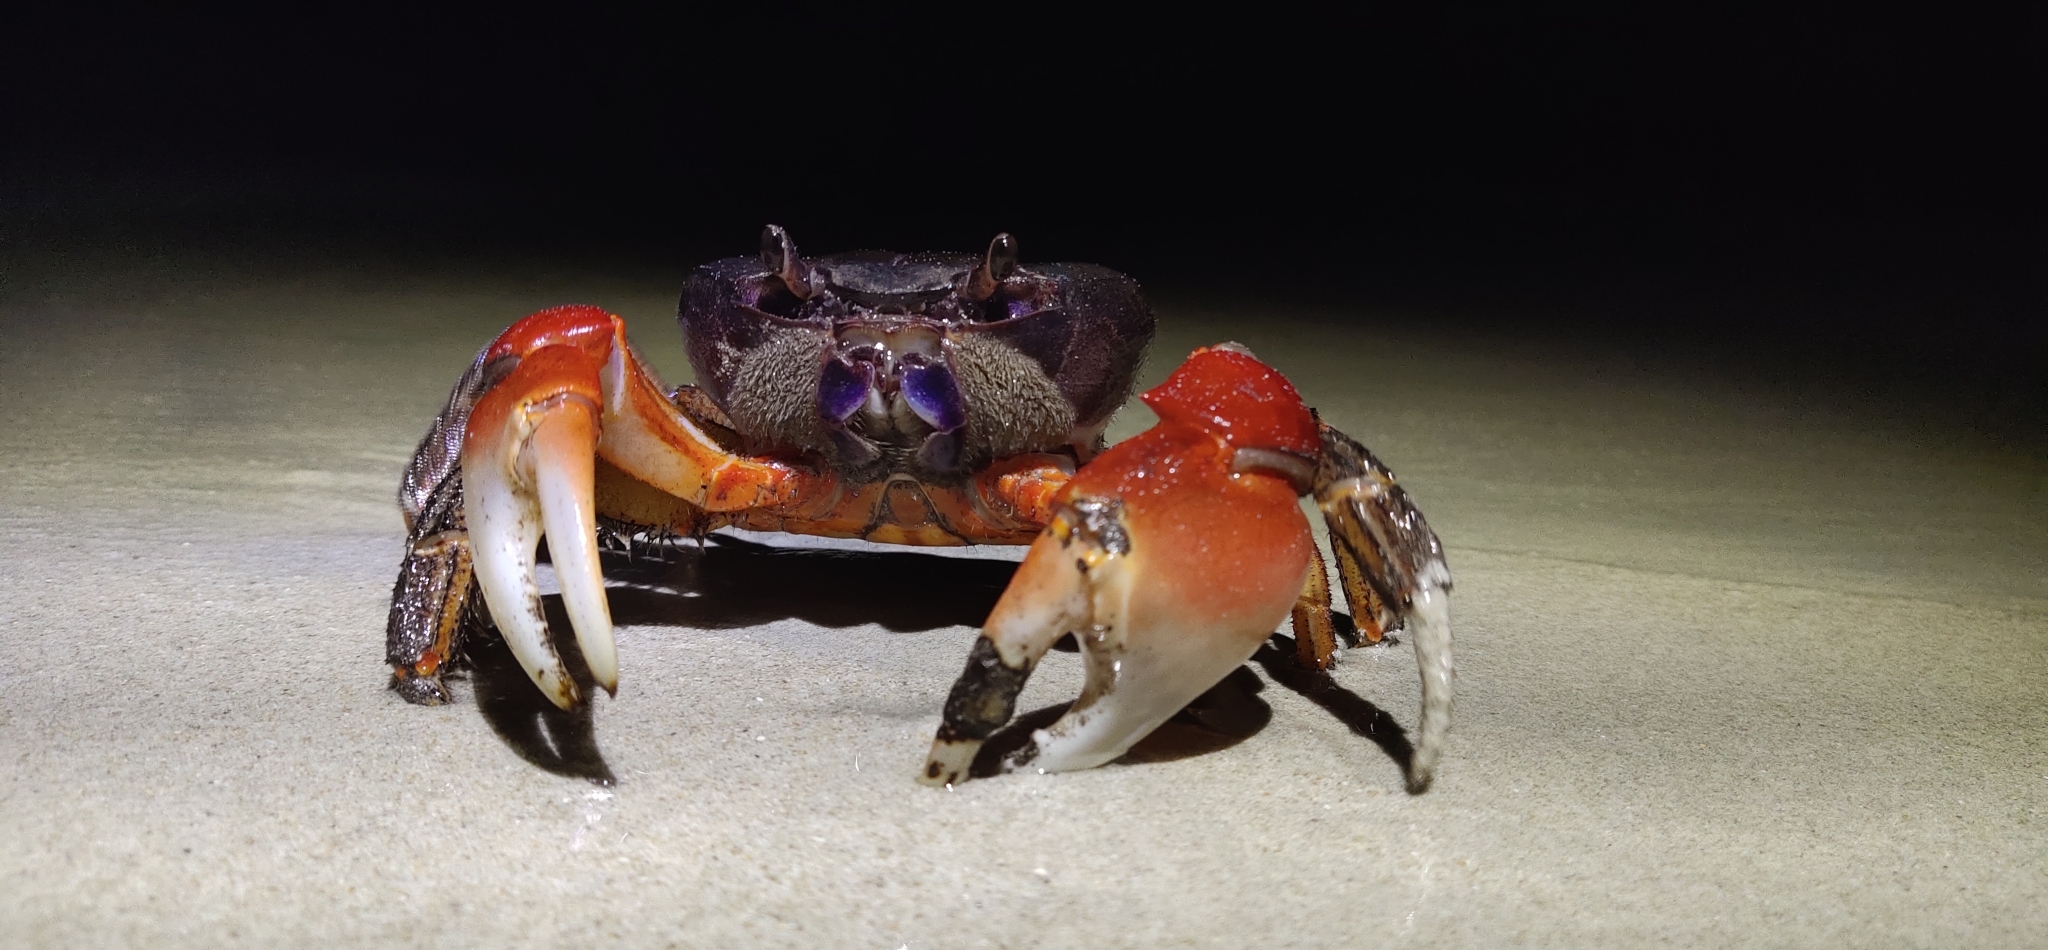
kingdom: Animalia
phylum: Arthropoda
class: Malacostraca
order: Decapoda
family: Gecarcinidae
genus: Tuerkayana
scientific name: Tuerkayana magnum
